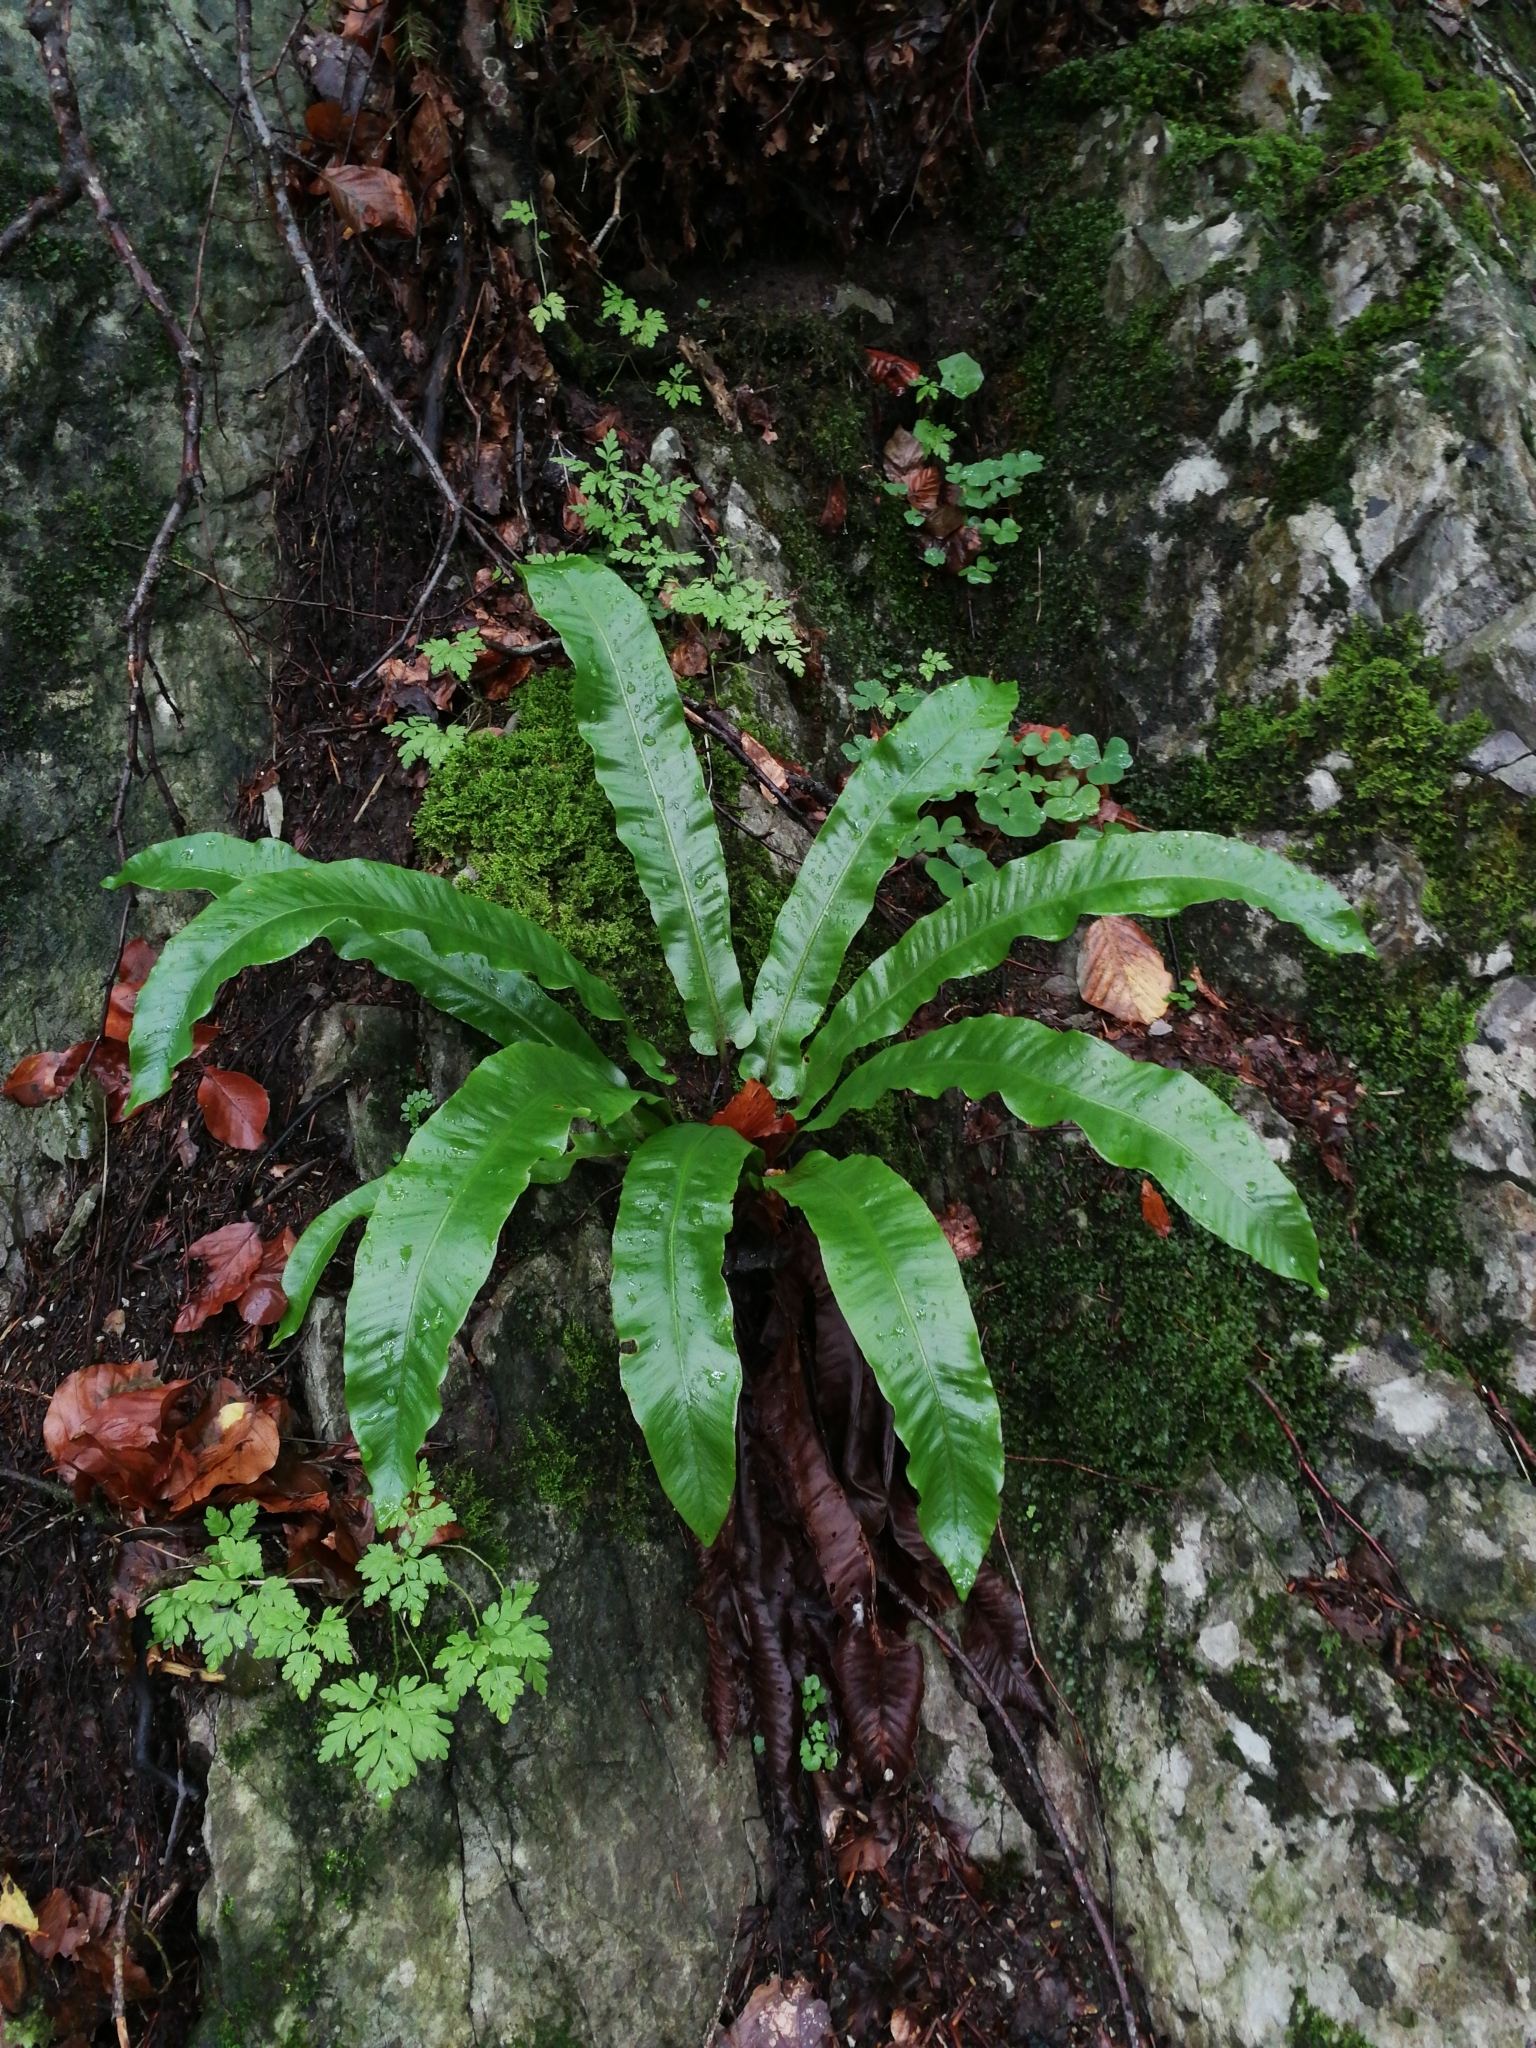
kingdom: Plantae
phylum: Tracheophyta
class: Polypodiopsida
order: Polypodiales
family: Aspleniaceae
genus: Asplenium
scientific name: Asplenium scolopendrium
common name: Hart's-tongue fern
